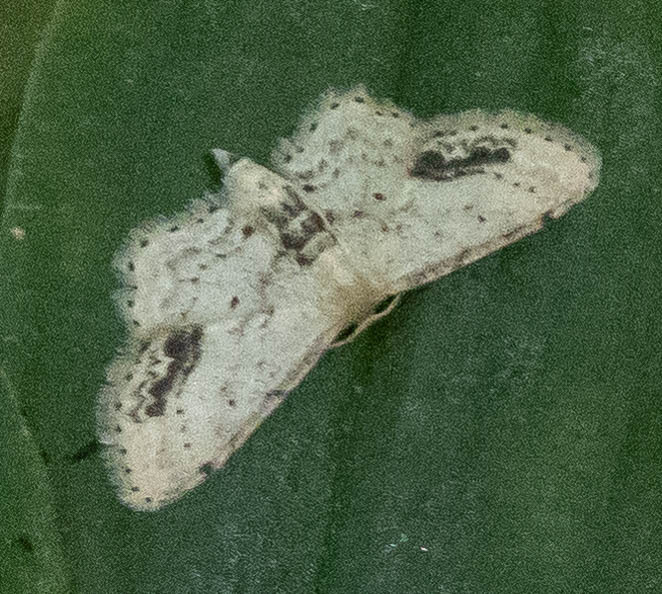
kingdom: Animalia
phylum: Arthropoda
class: Insecta
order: Lepidoptera
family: Geometridae
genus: Idaea
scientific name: Idaea dimidiata
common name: Single-dotted wave
